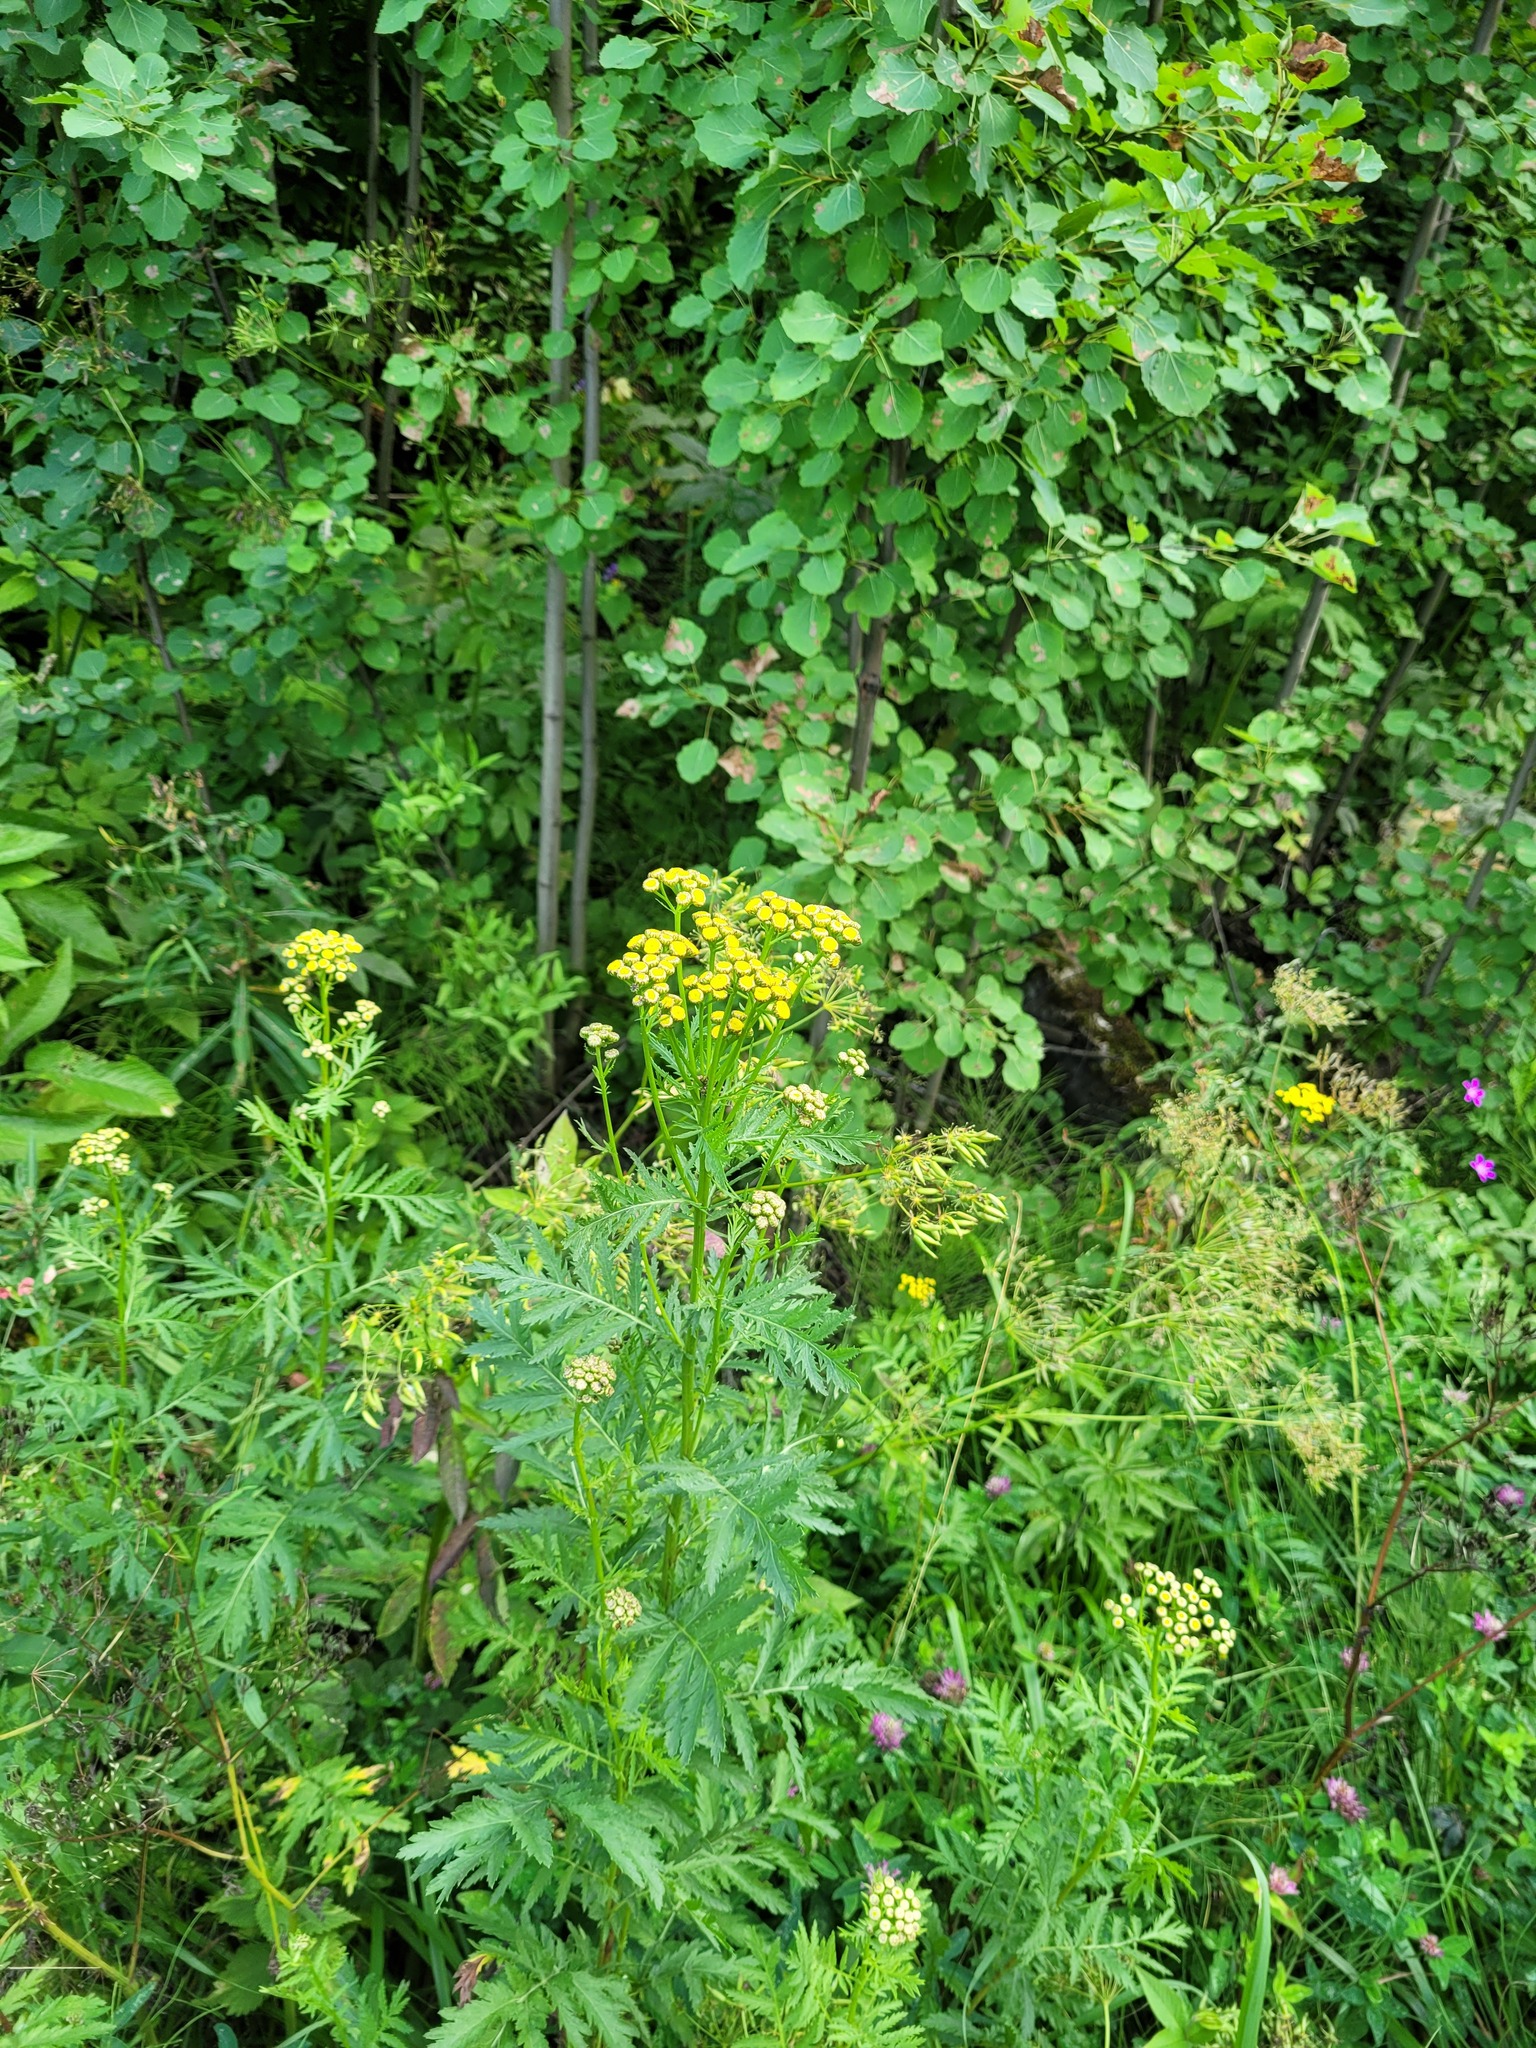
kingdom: Plantae
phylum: Tracheophyta
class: Magnoliopsida
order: Asterales
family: Asteraceae
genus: Tanacetum
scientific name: Tanacetum vulgare
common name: Common tansy
